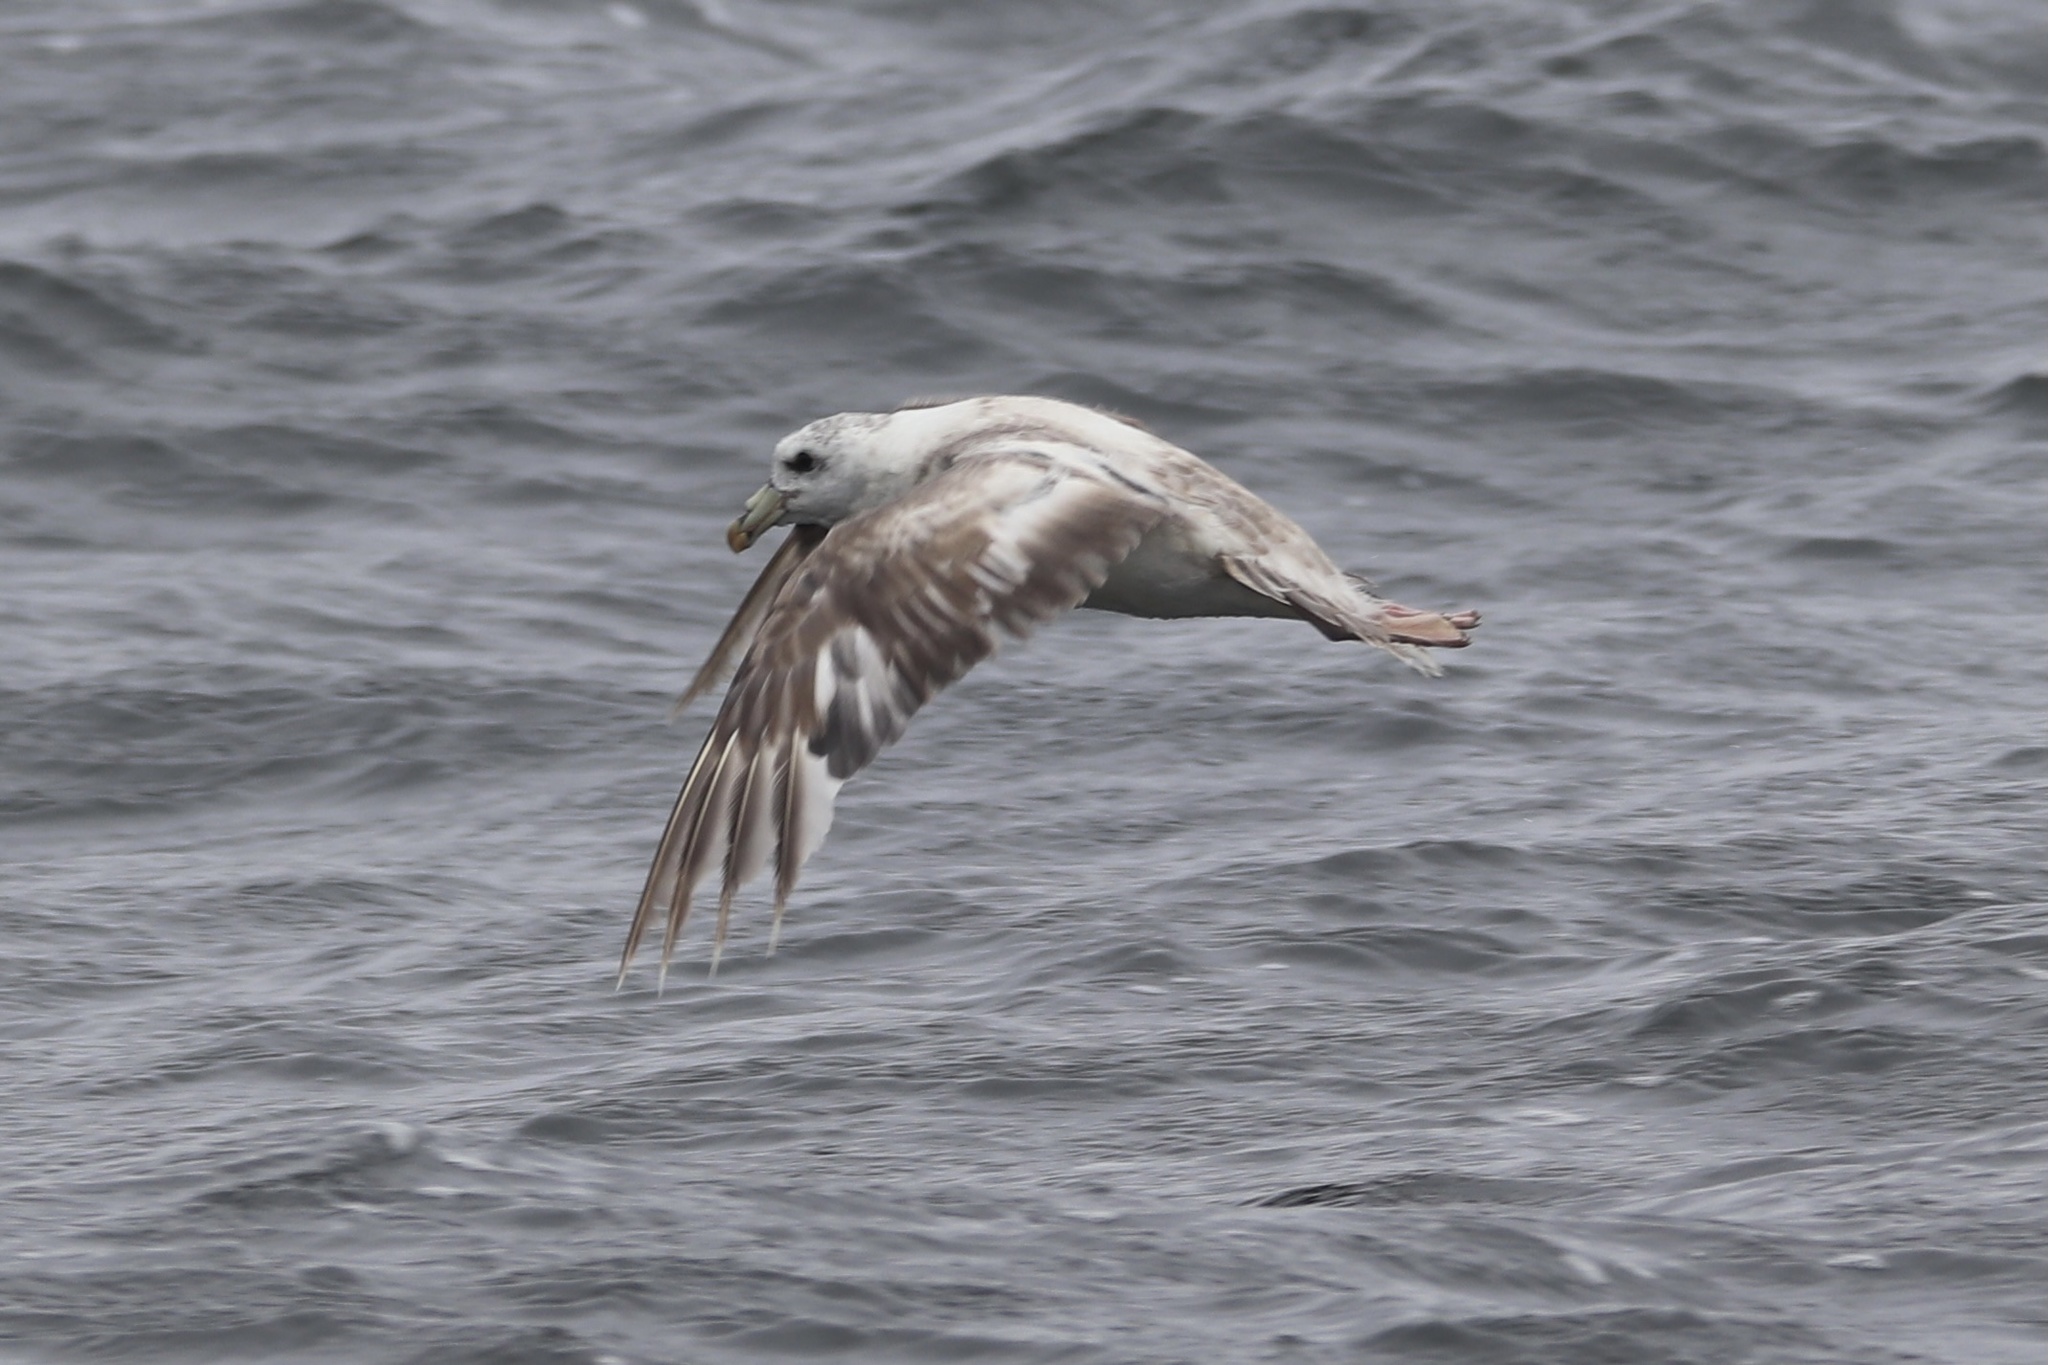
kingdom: Animalia
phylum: Chordata
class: Aves
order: Procellariiformes
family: Procellariidae
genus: Fulmarus
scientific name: Fulmarus glacialis
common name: Northern fulmar
